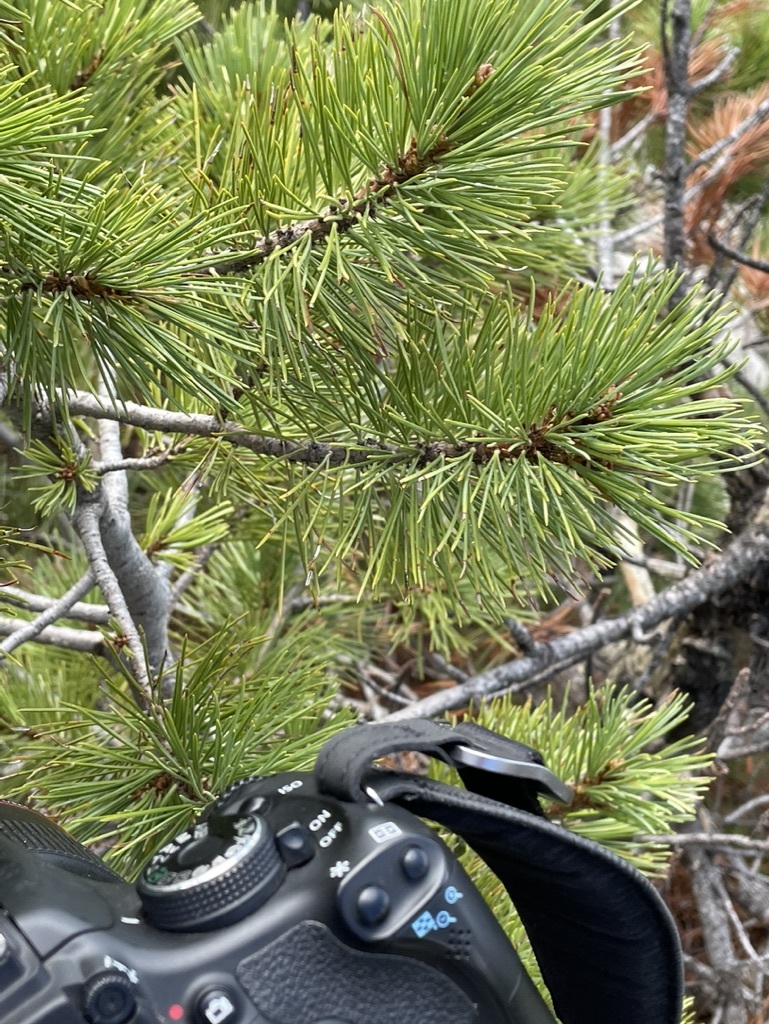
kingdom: Fungi
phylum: Basidiomycota
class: Pucciniomycetes
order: Pucciniales
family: Cronartiaceae
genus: Cronartium
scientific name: Cronartium ribicola
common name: White pine blister rust
